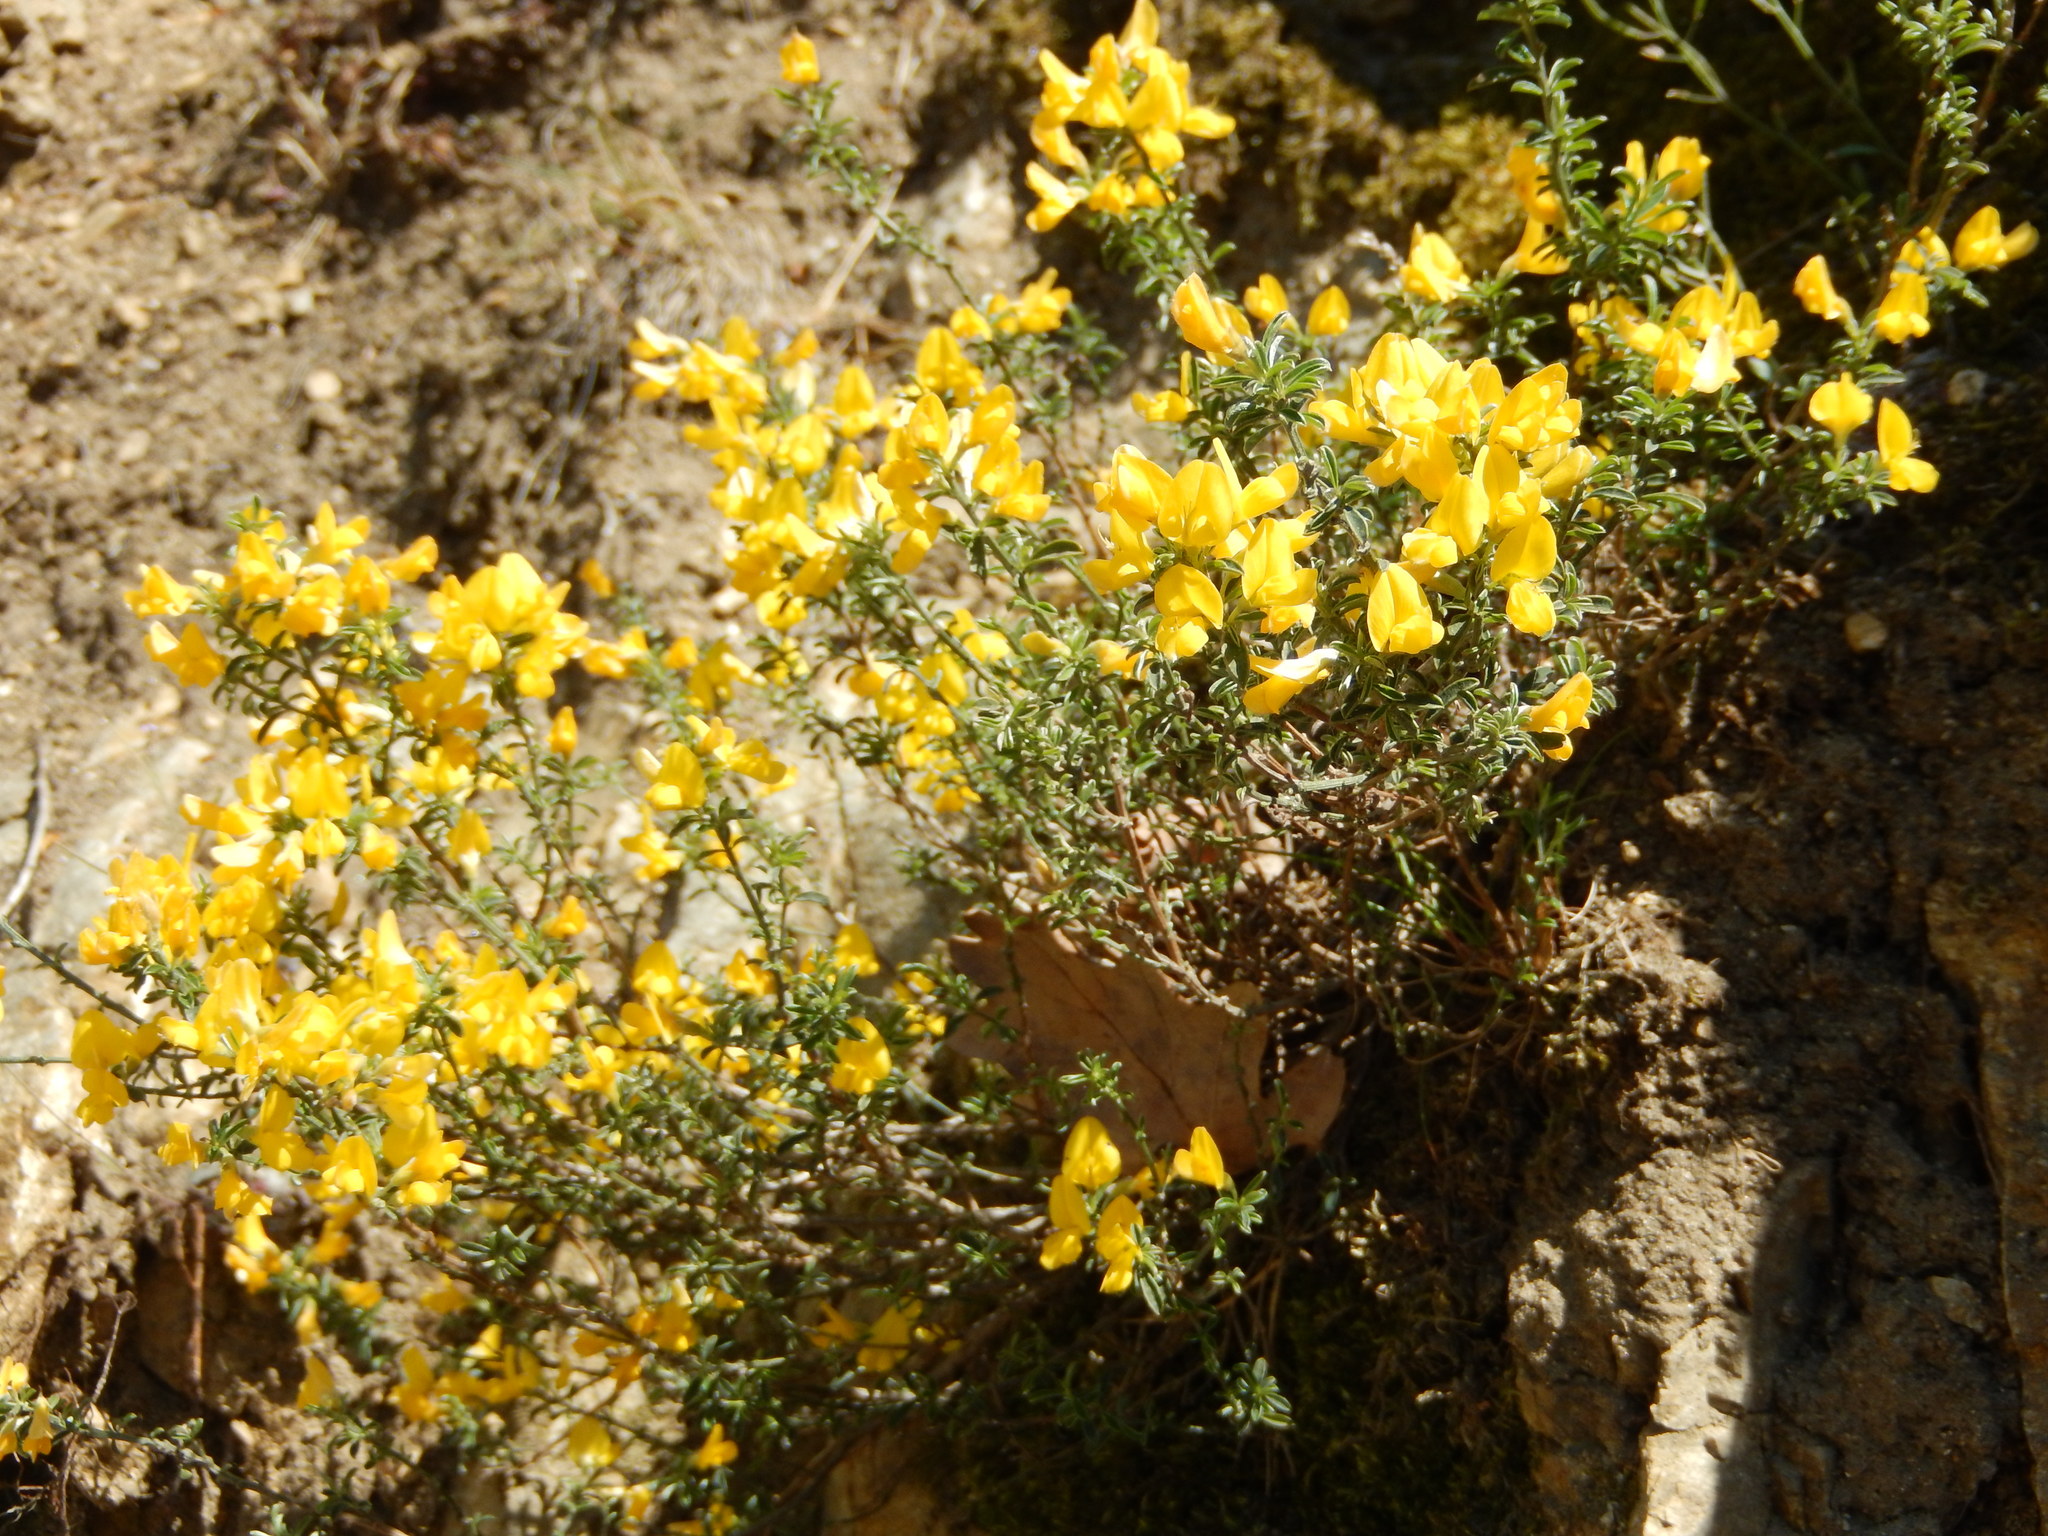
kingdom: Plantae
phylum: Tracheophyta
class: Magnoliopsida
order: Fabales
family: Fabaceae
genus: Genista
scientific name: Genista pilosa
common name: Hairy greenweed
